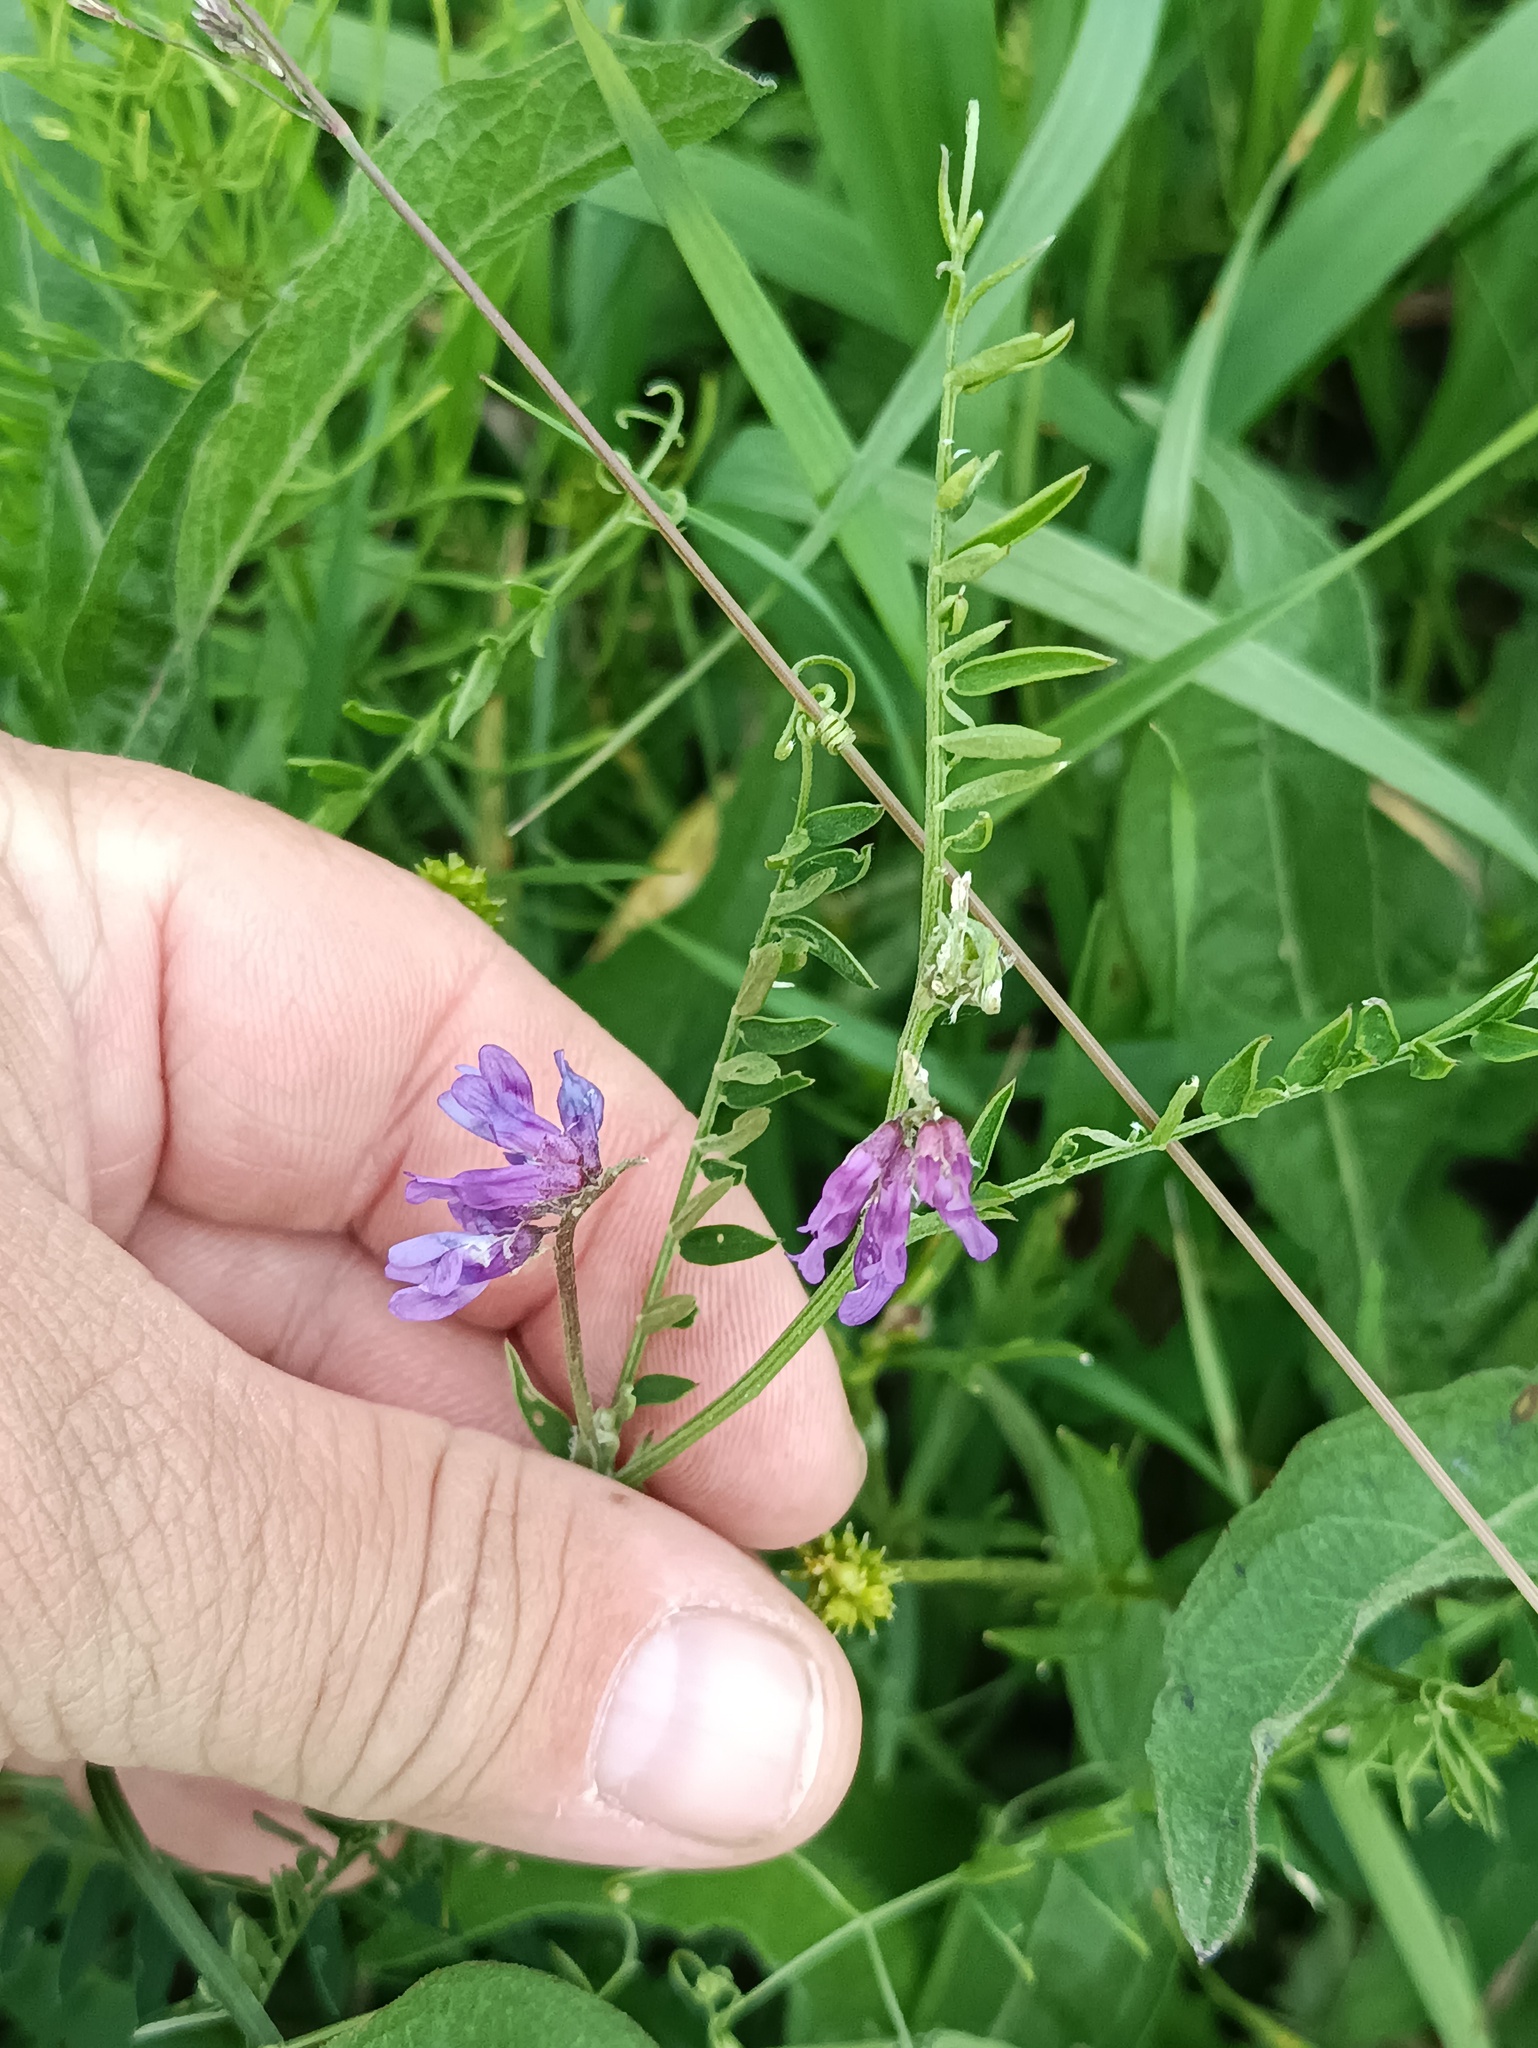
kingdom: Plantae
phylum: Tracheophyta
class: Magnoliopsida
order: Fabales
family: Fabaceae
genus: Vicia
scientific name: Vicia cracca
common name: Bird vetch
